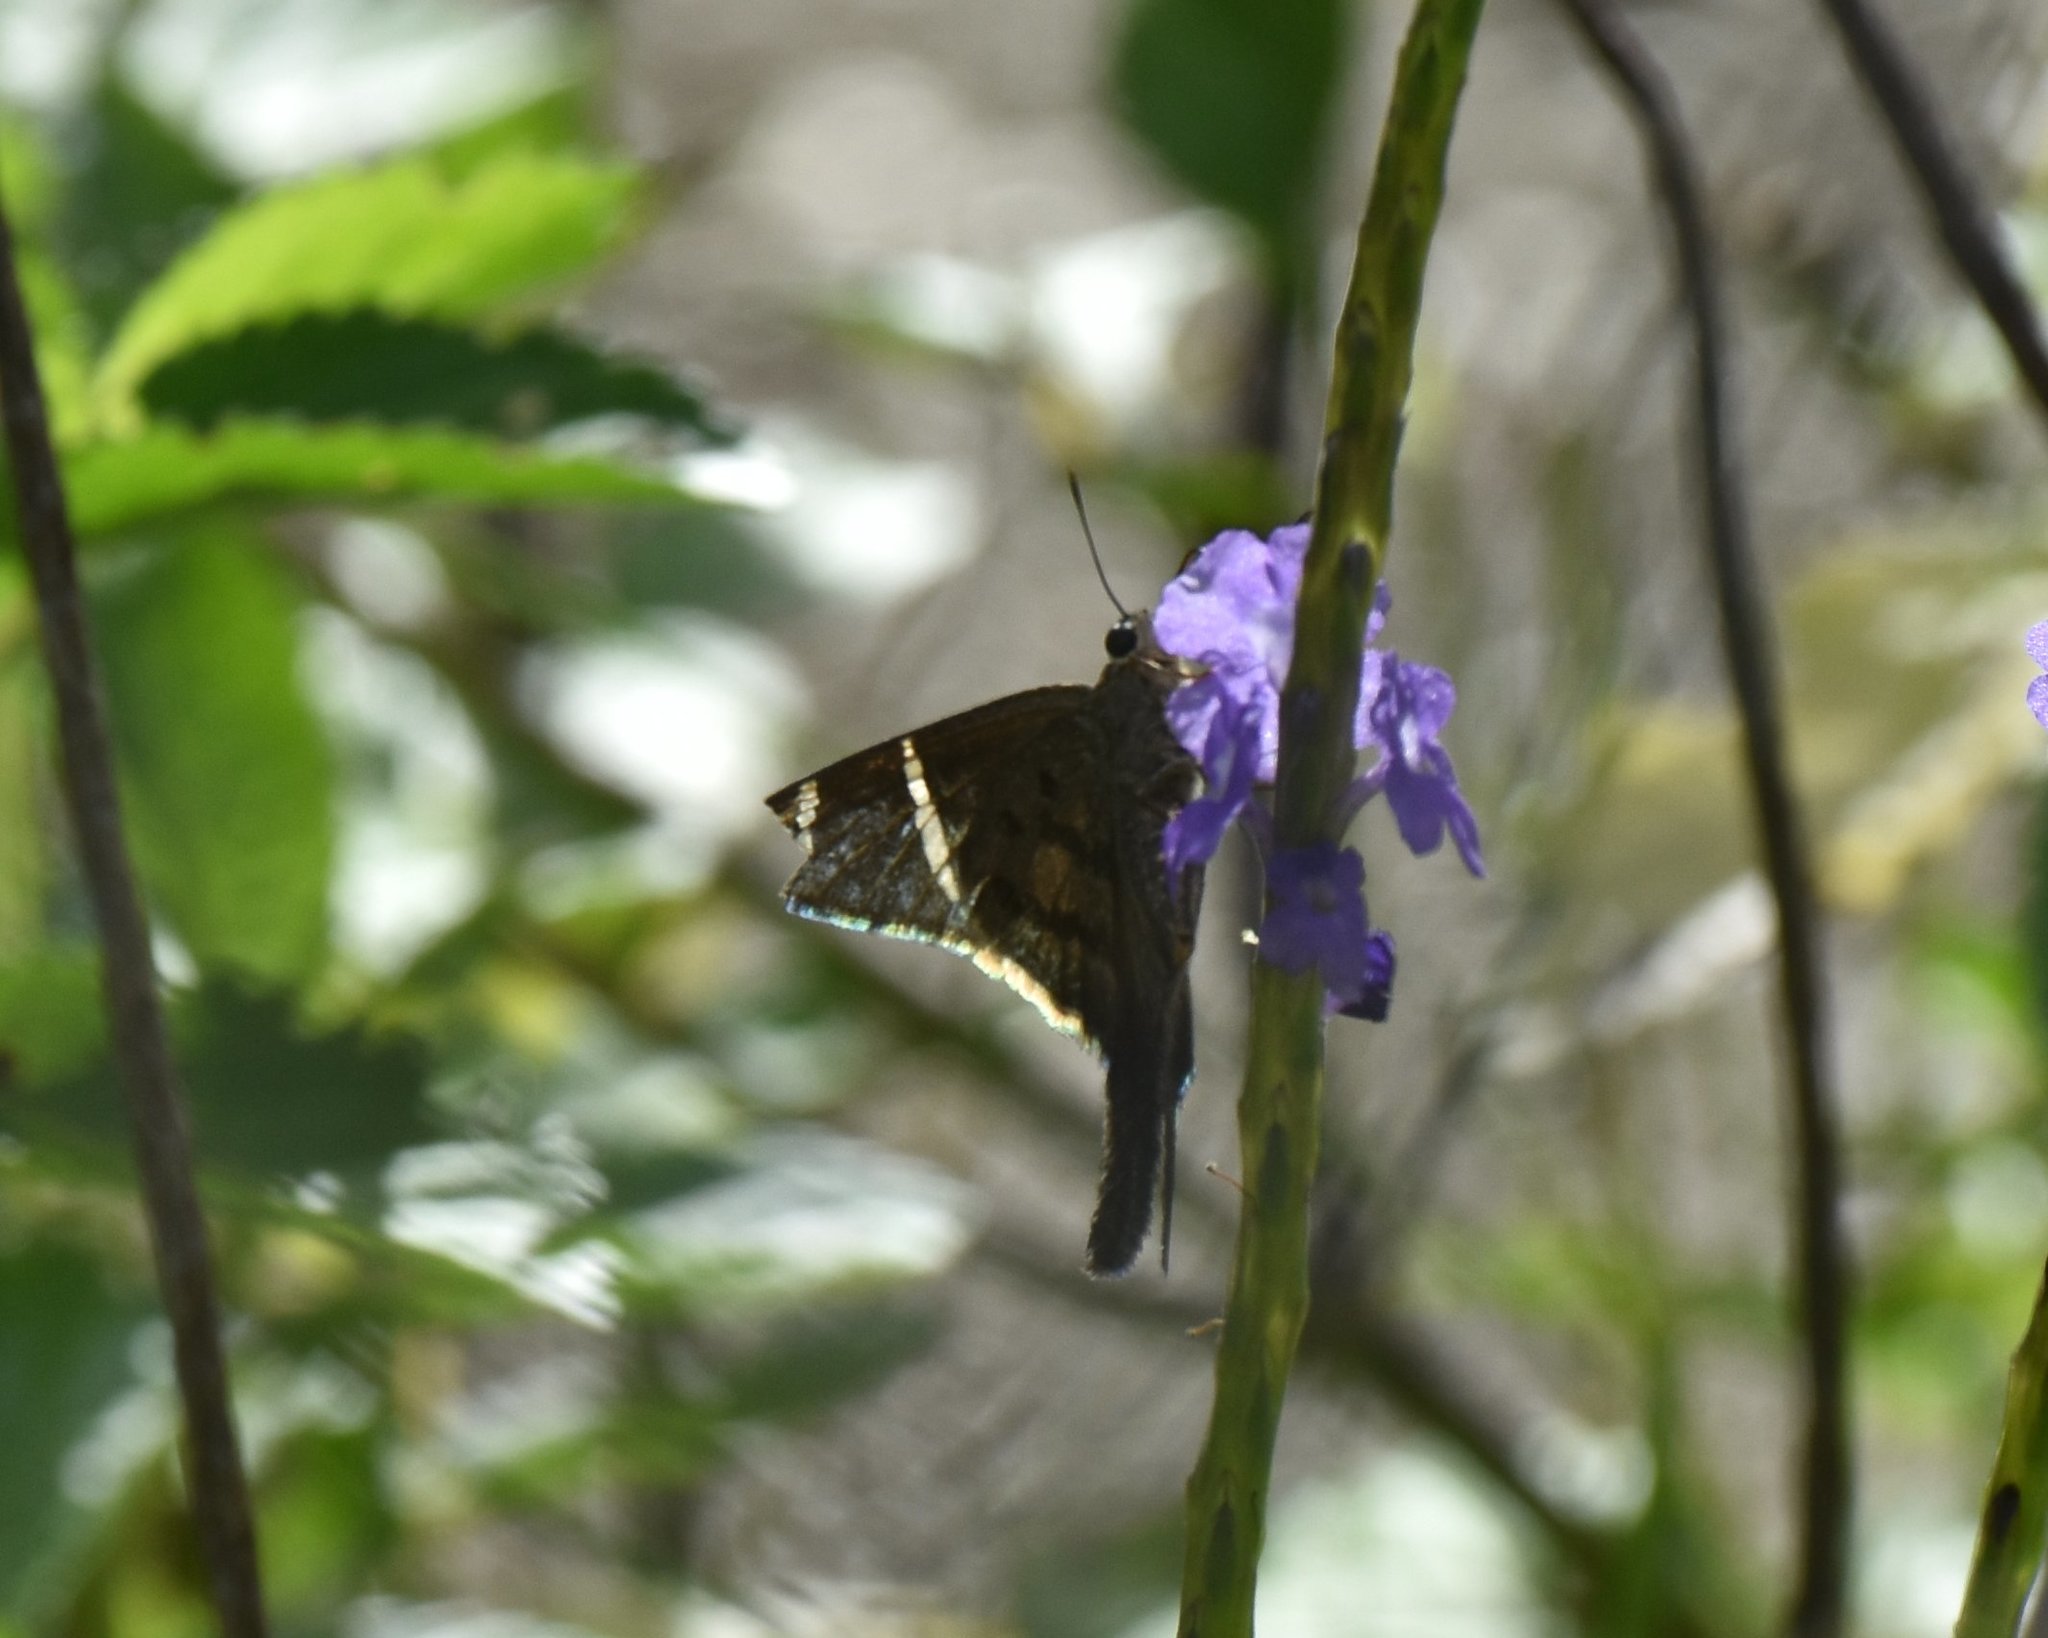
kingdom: Animalia
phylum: Arthropoda
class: Insecta
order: Lepidoptera
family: Hesperiidae
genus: Urbanus
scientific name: Urbanus tanna
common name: Tanna longtail
